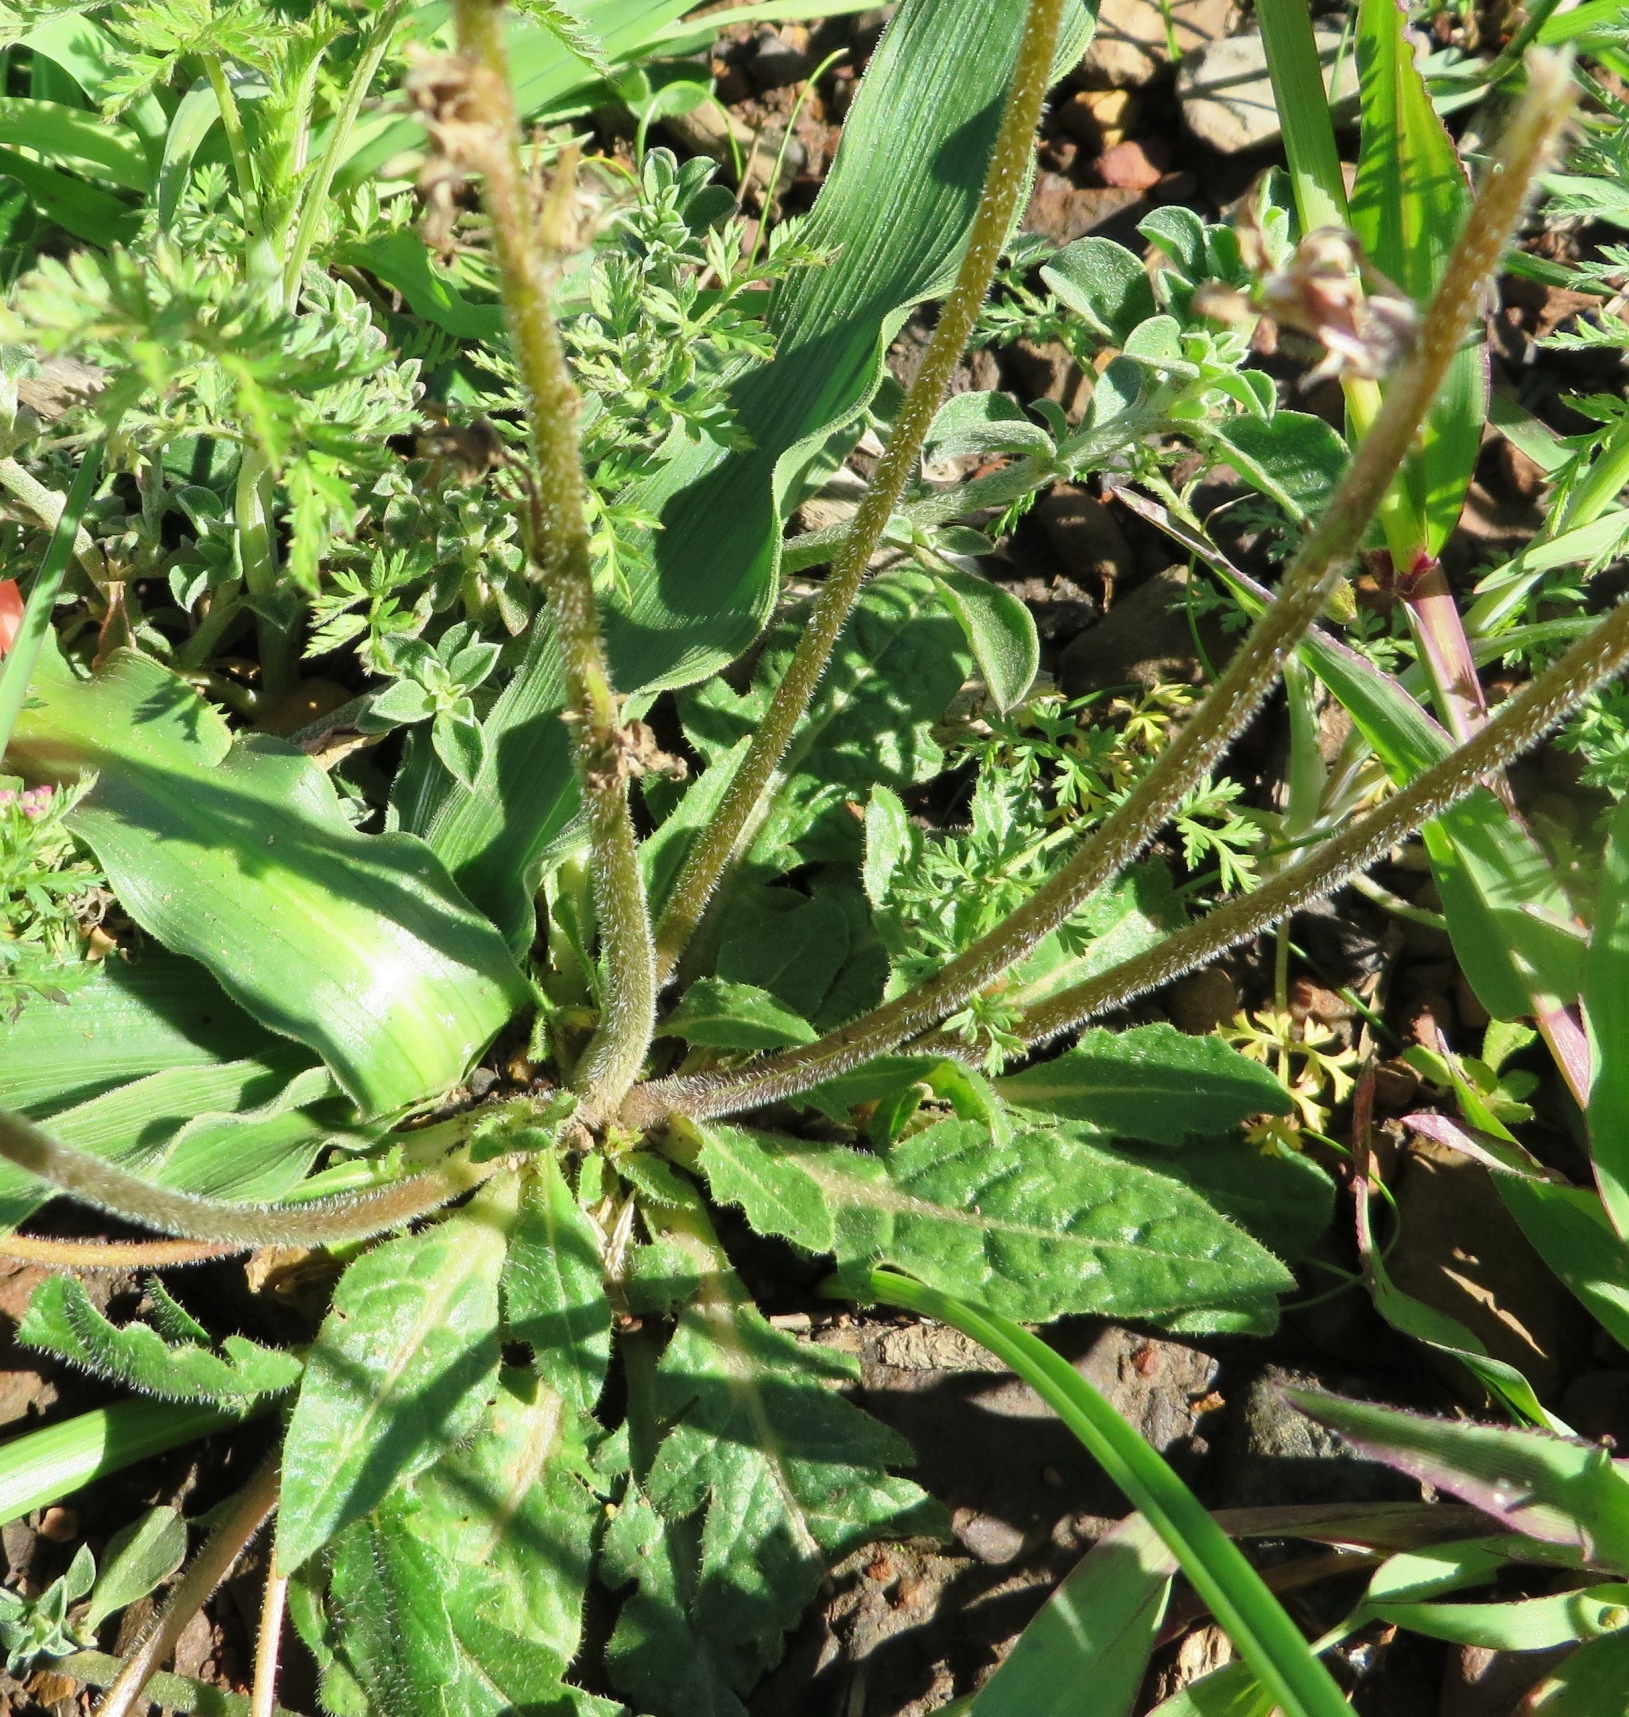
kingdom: Plantae
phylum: Tracheophyta
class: Magnoliopsida
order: Asterales
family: Campanulaceae
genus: Cyphia
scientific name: Cyphia bulbosa
